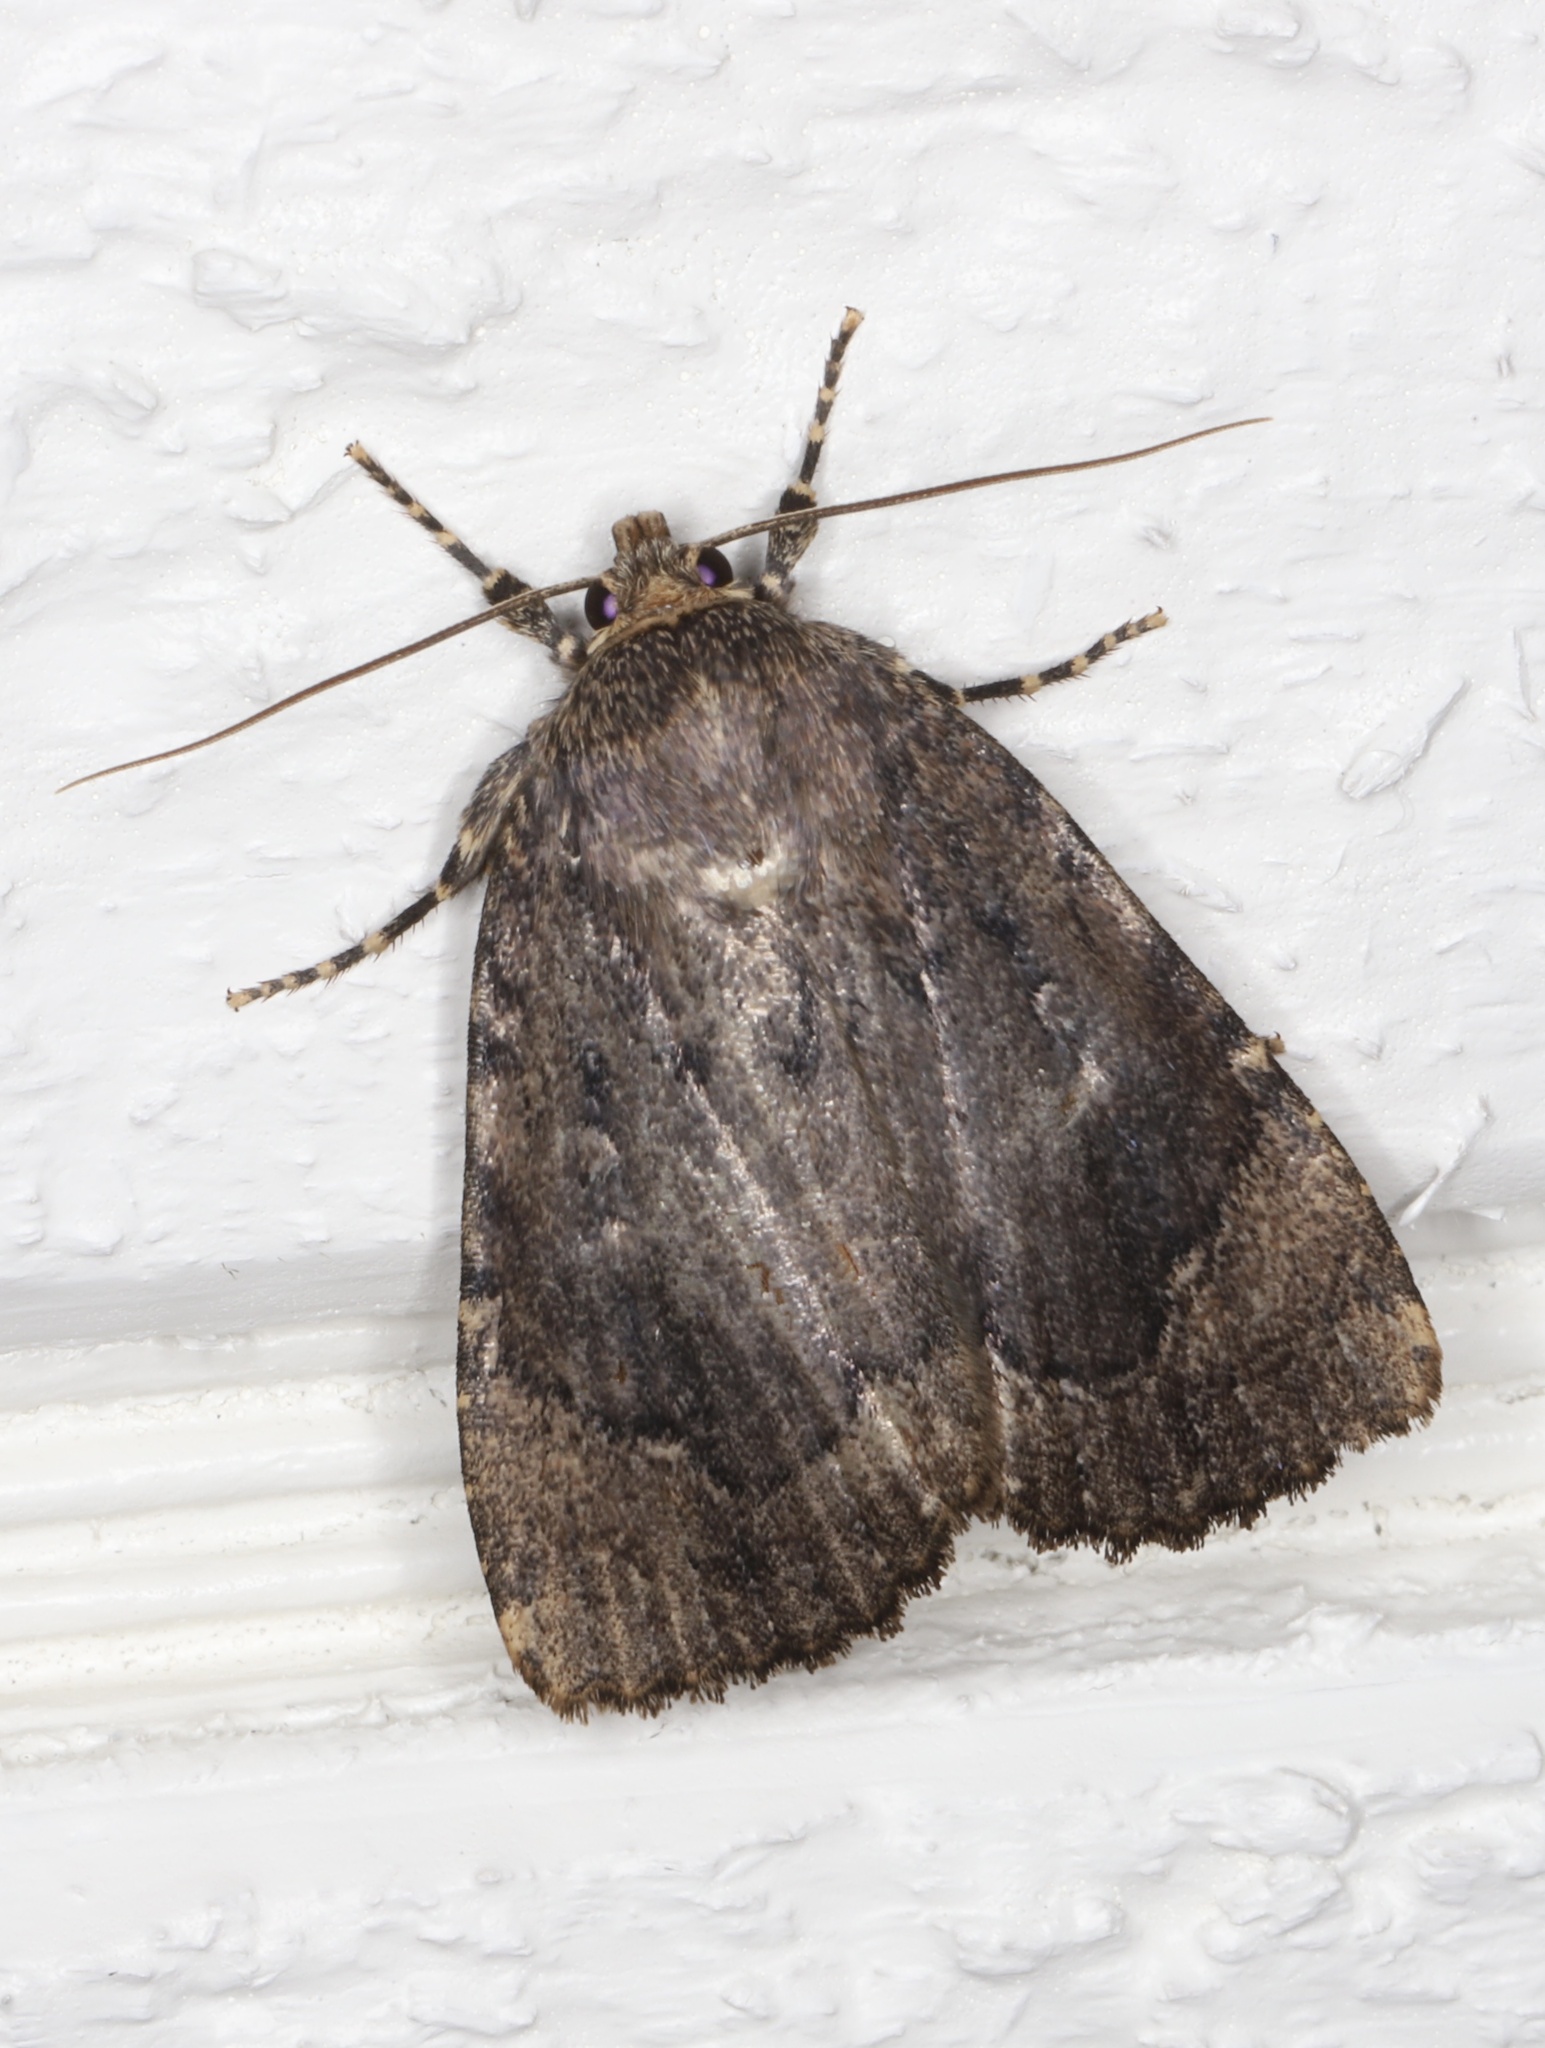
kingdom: Animalia
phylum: Arthropoda
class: Insecta
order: Lepidoptera
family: Noctuidae
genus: Amphipyra
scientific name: Amphipyra pyramidoides
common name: American copper underwing
